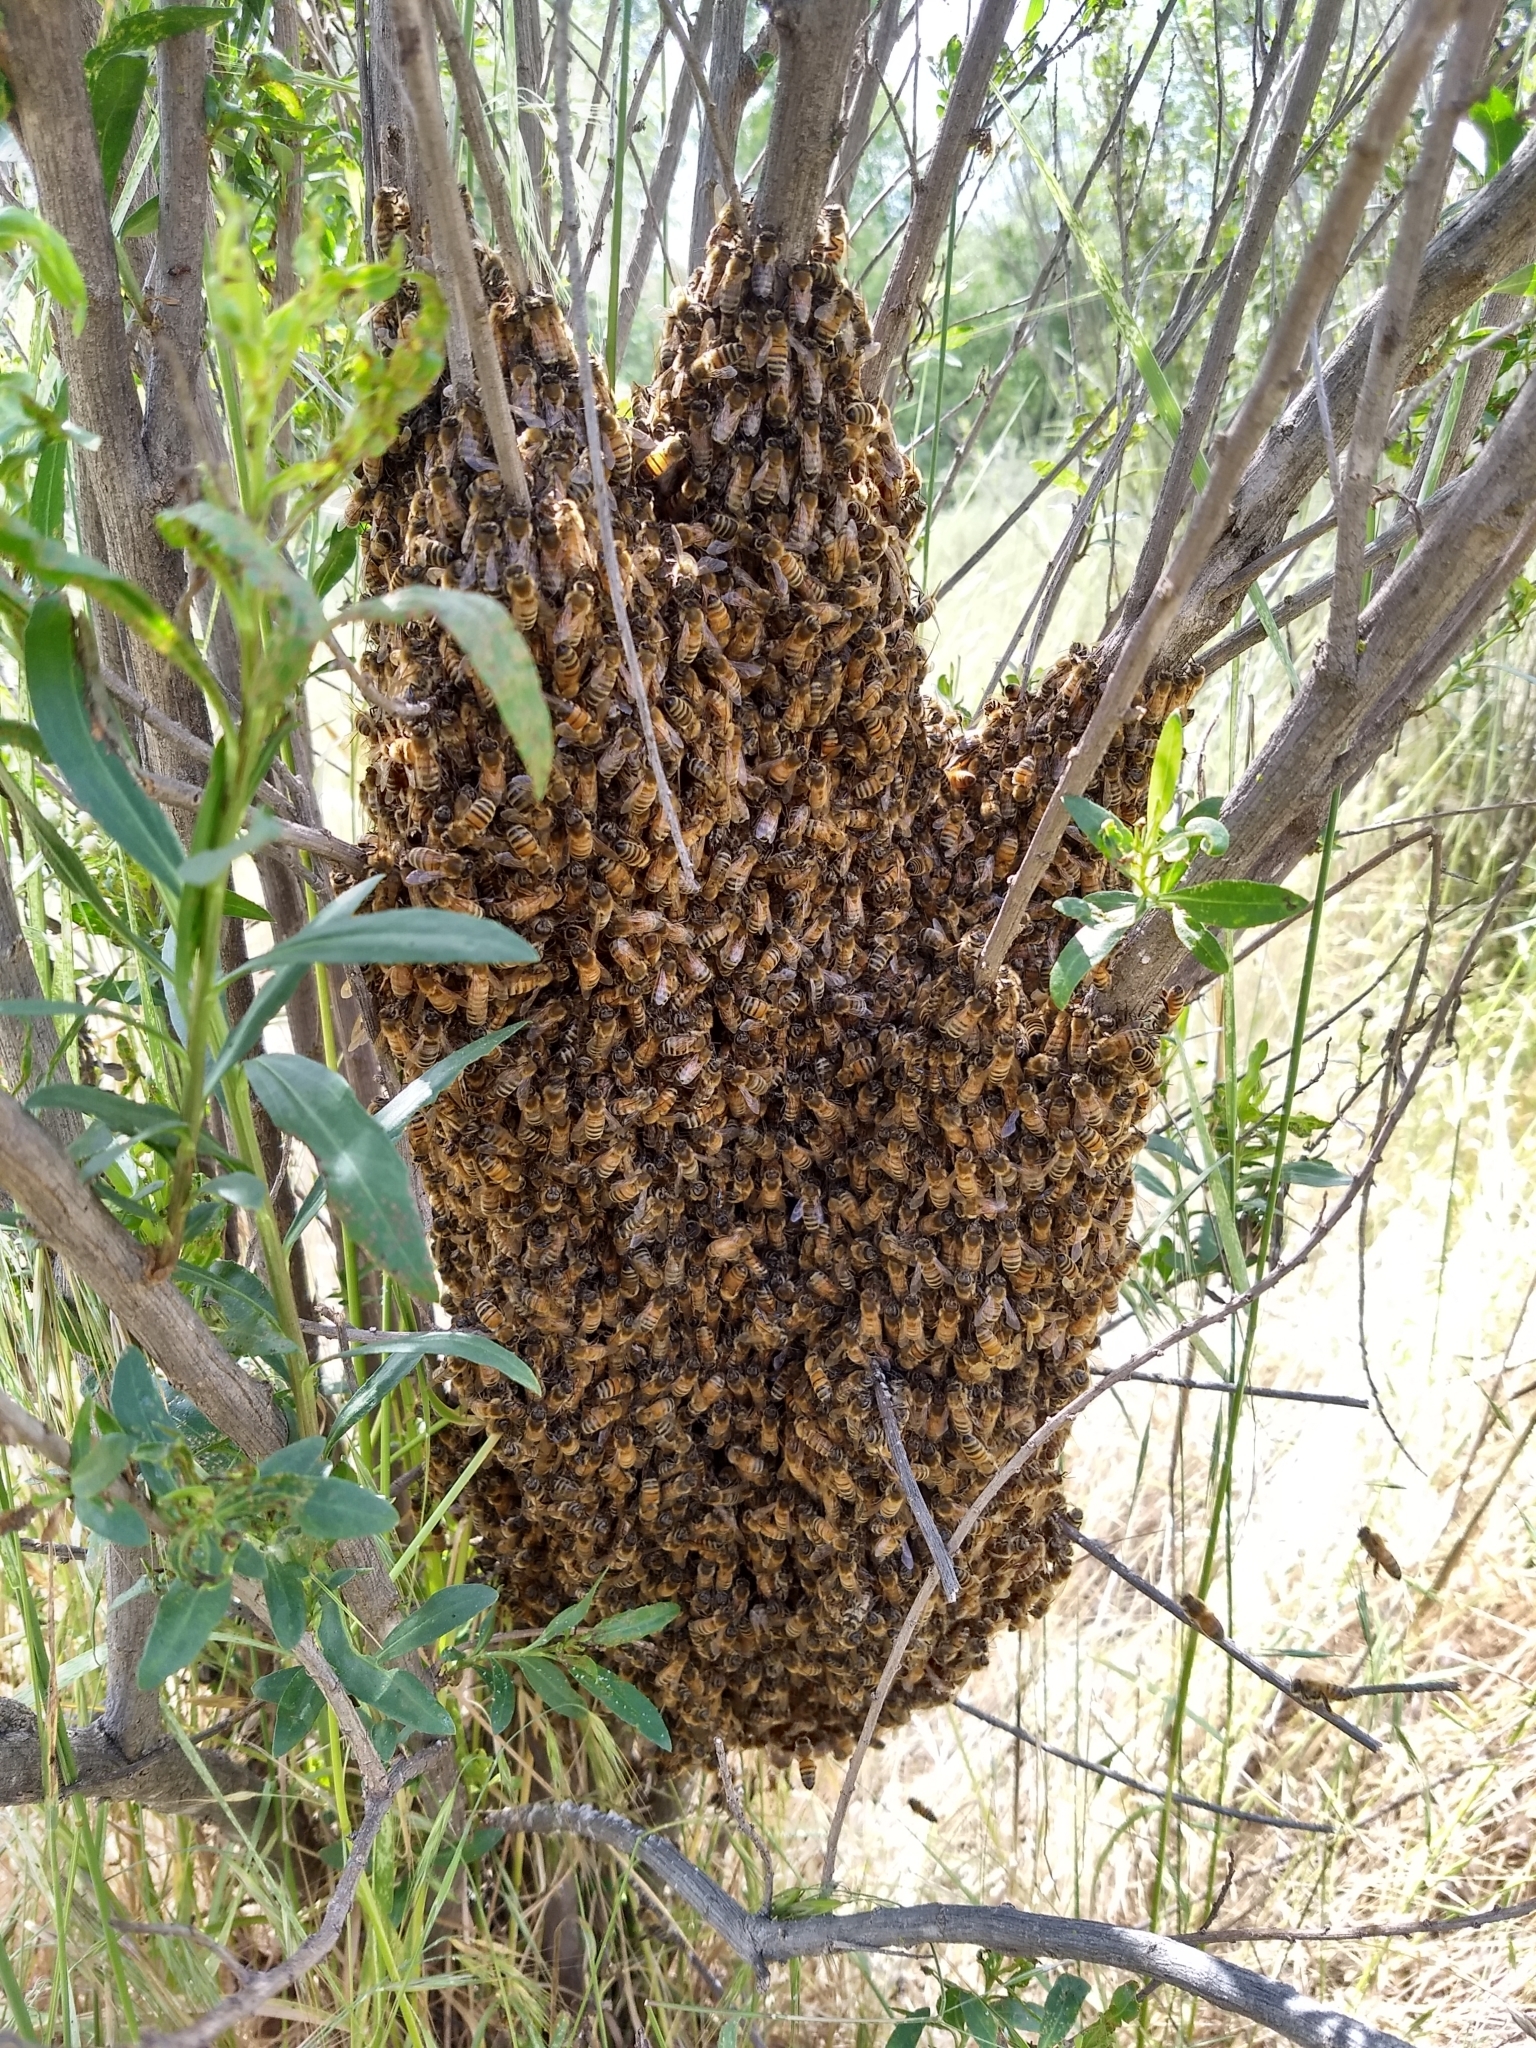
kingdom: Animalia
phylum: Arthropoda
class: Insecta
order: Hymenoptera
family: Apidae
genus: Apis
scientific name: Apis mellifera
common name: Honey bee
